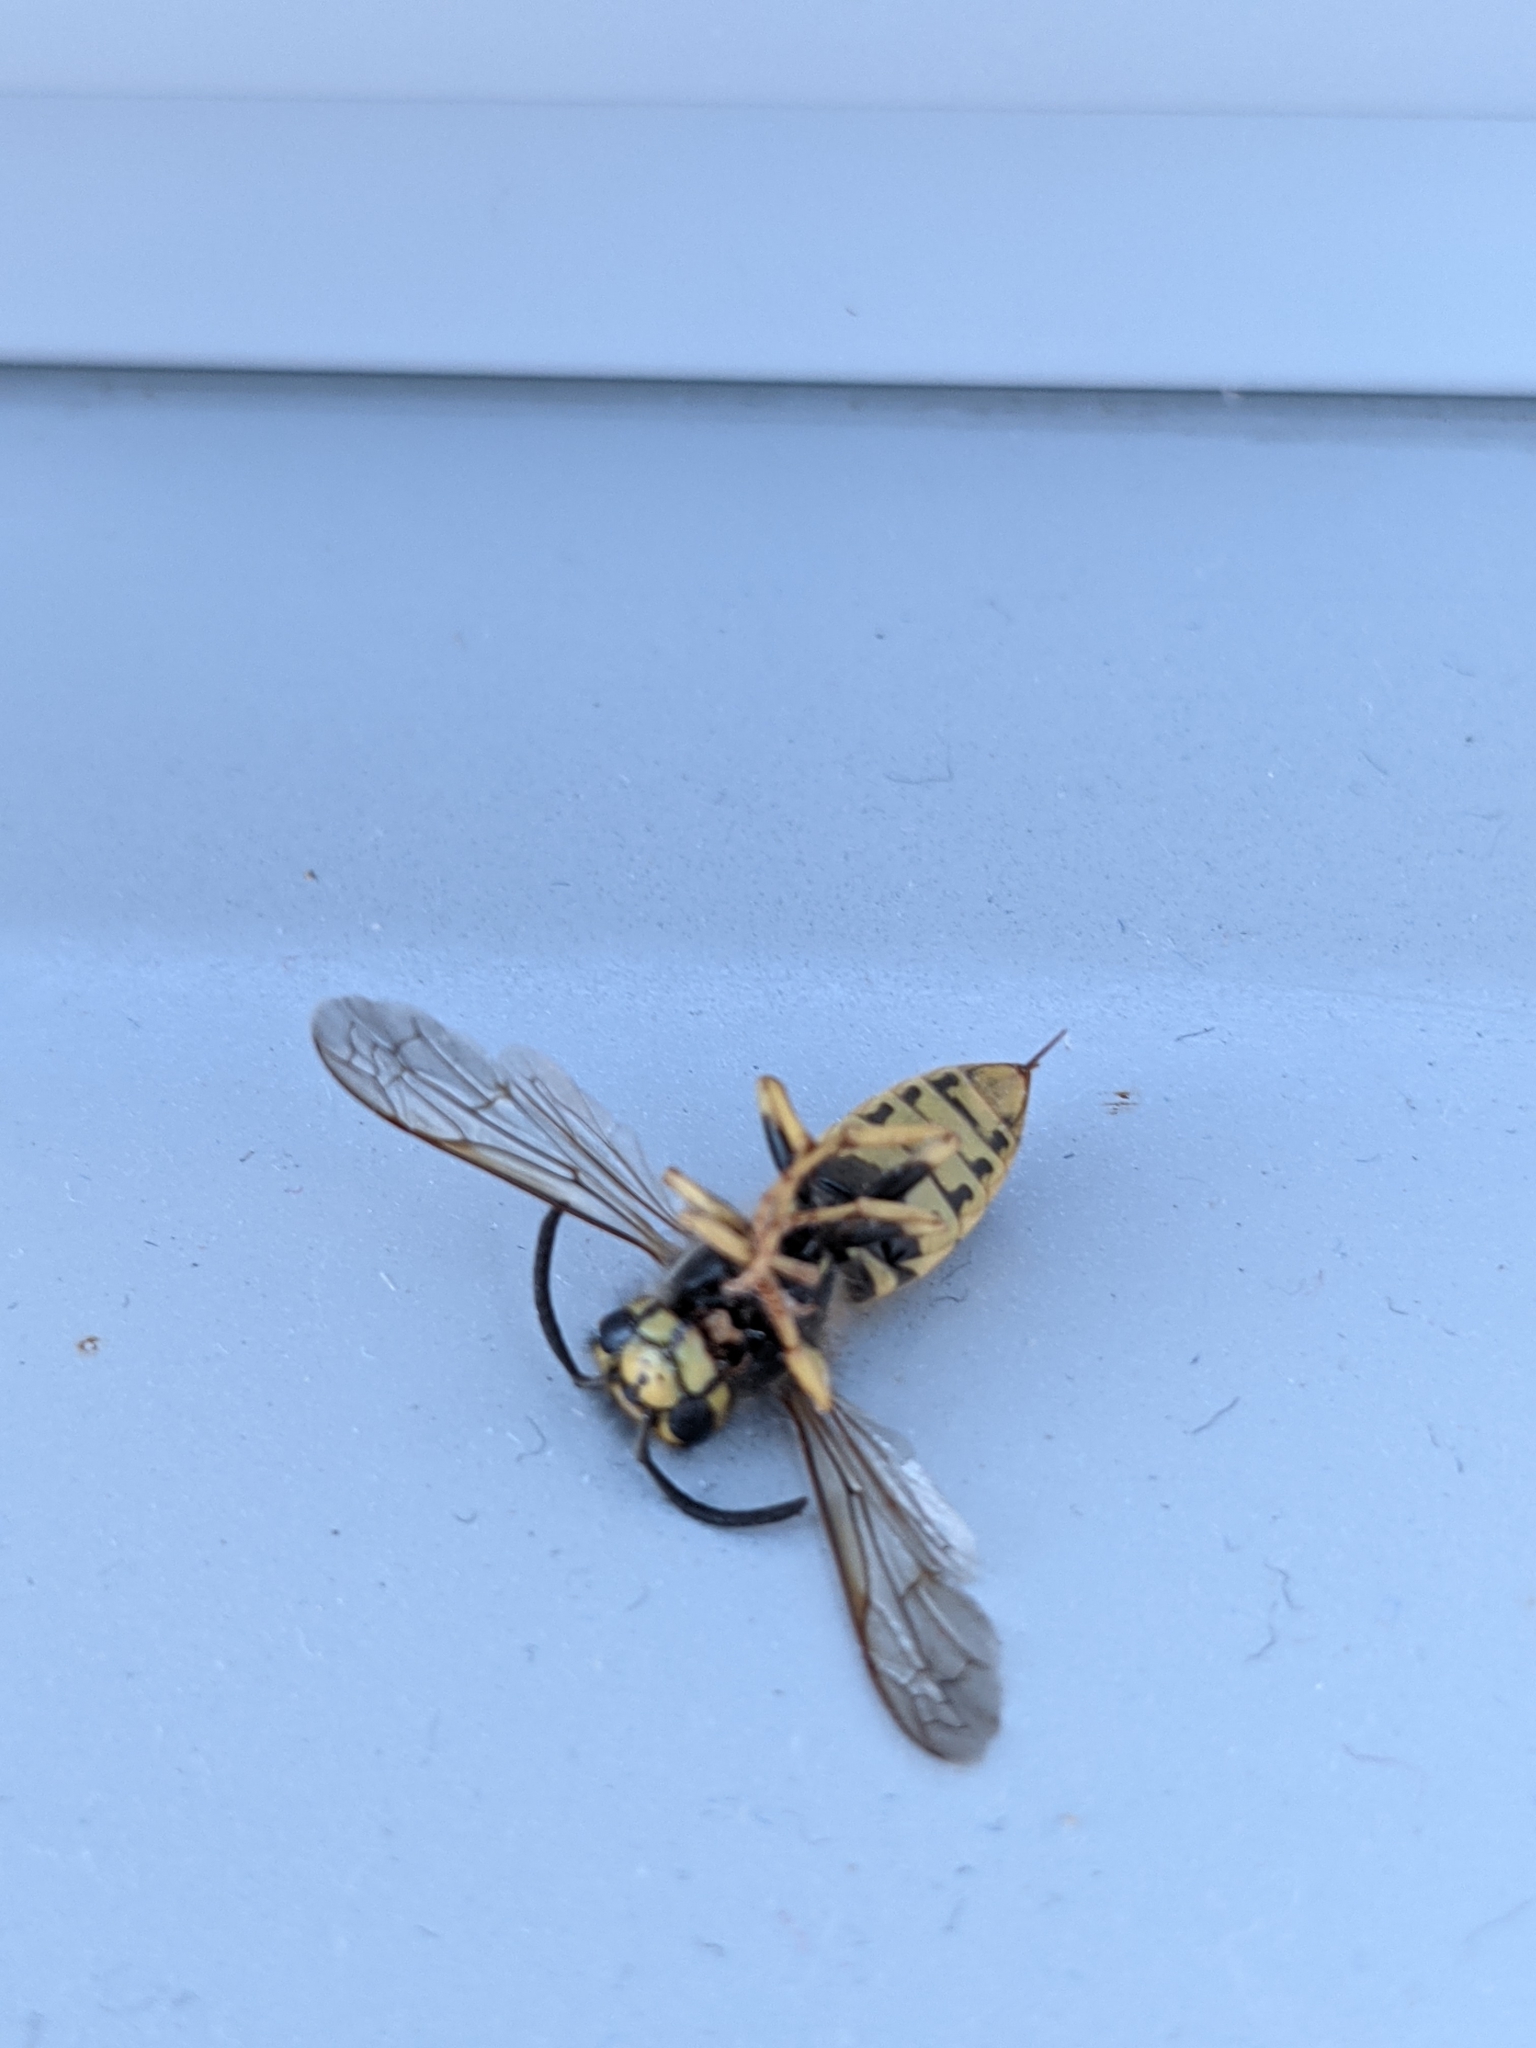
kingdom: Animalia
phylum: Arthropoda
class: Insecta
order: Hymenoptera
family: Vespidae
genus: Vespula
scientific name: Vespula germanica
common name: German wasp
